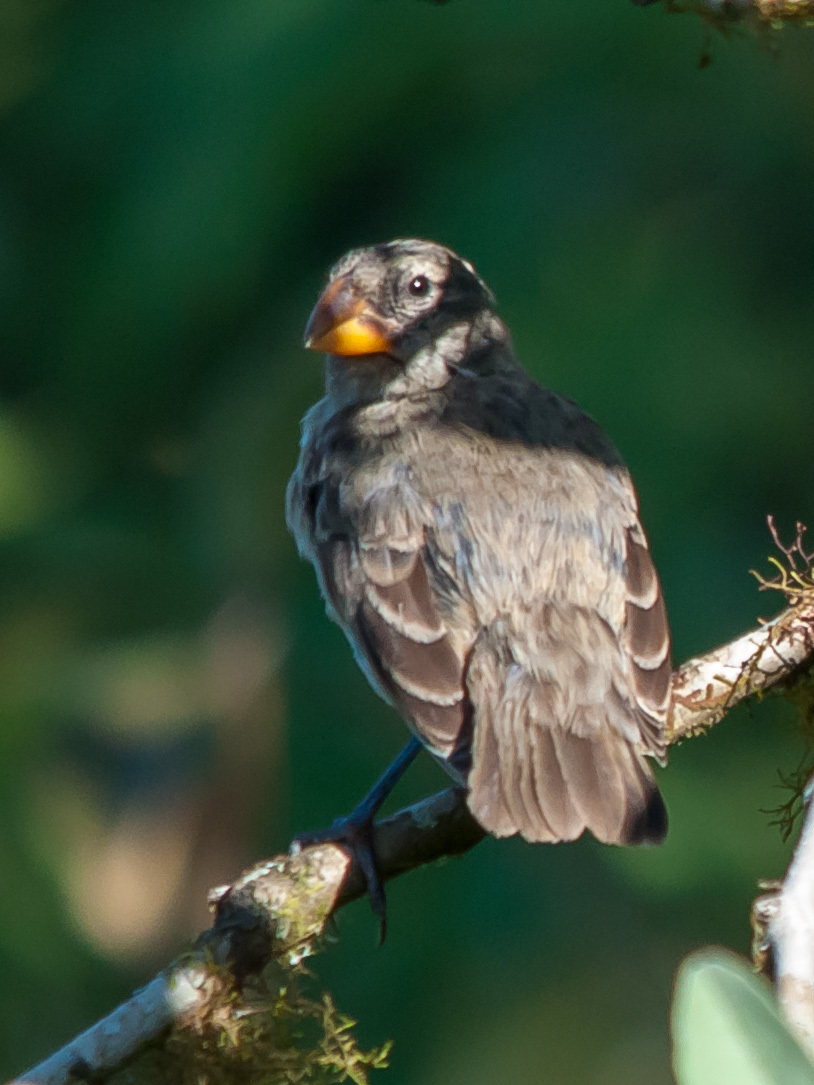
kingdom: Animalia
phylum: Chordata
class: Aves
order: Passeriformes
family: Thraupidae
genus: Geospiza
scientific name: Geospiza fortis
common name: Medium ground finch
